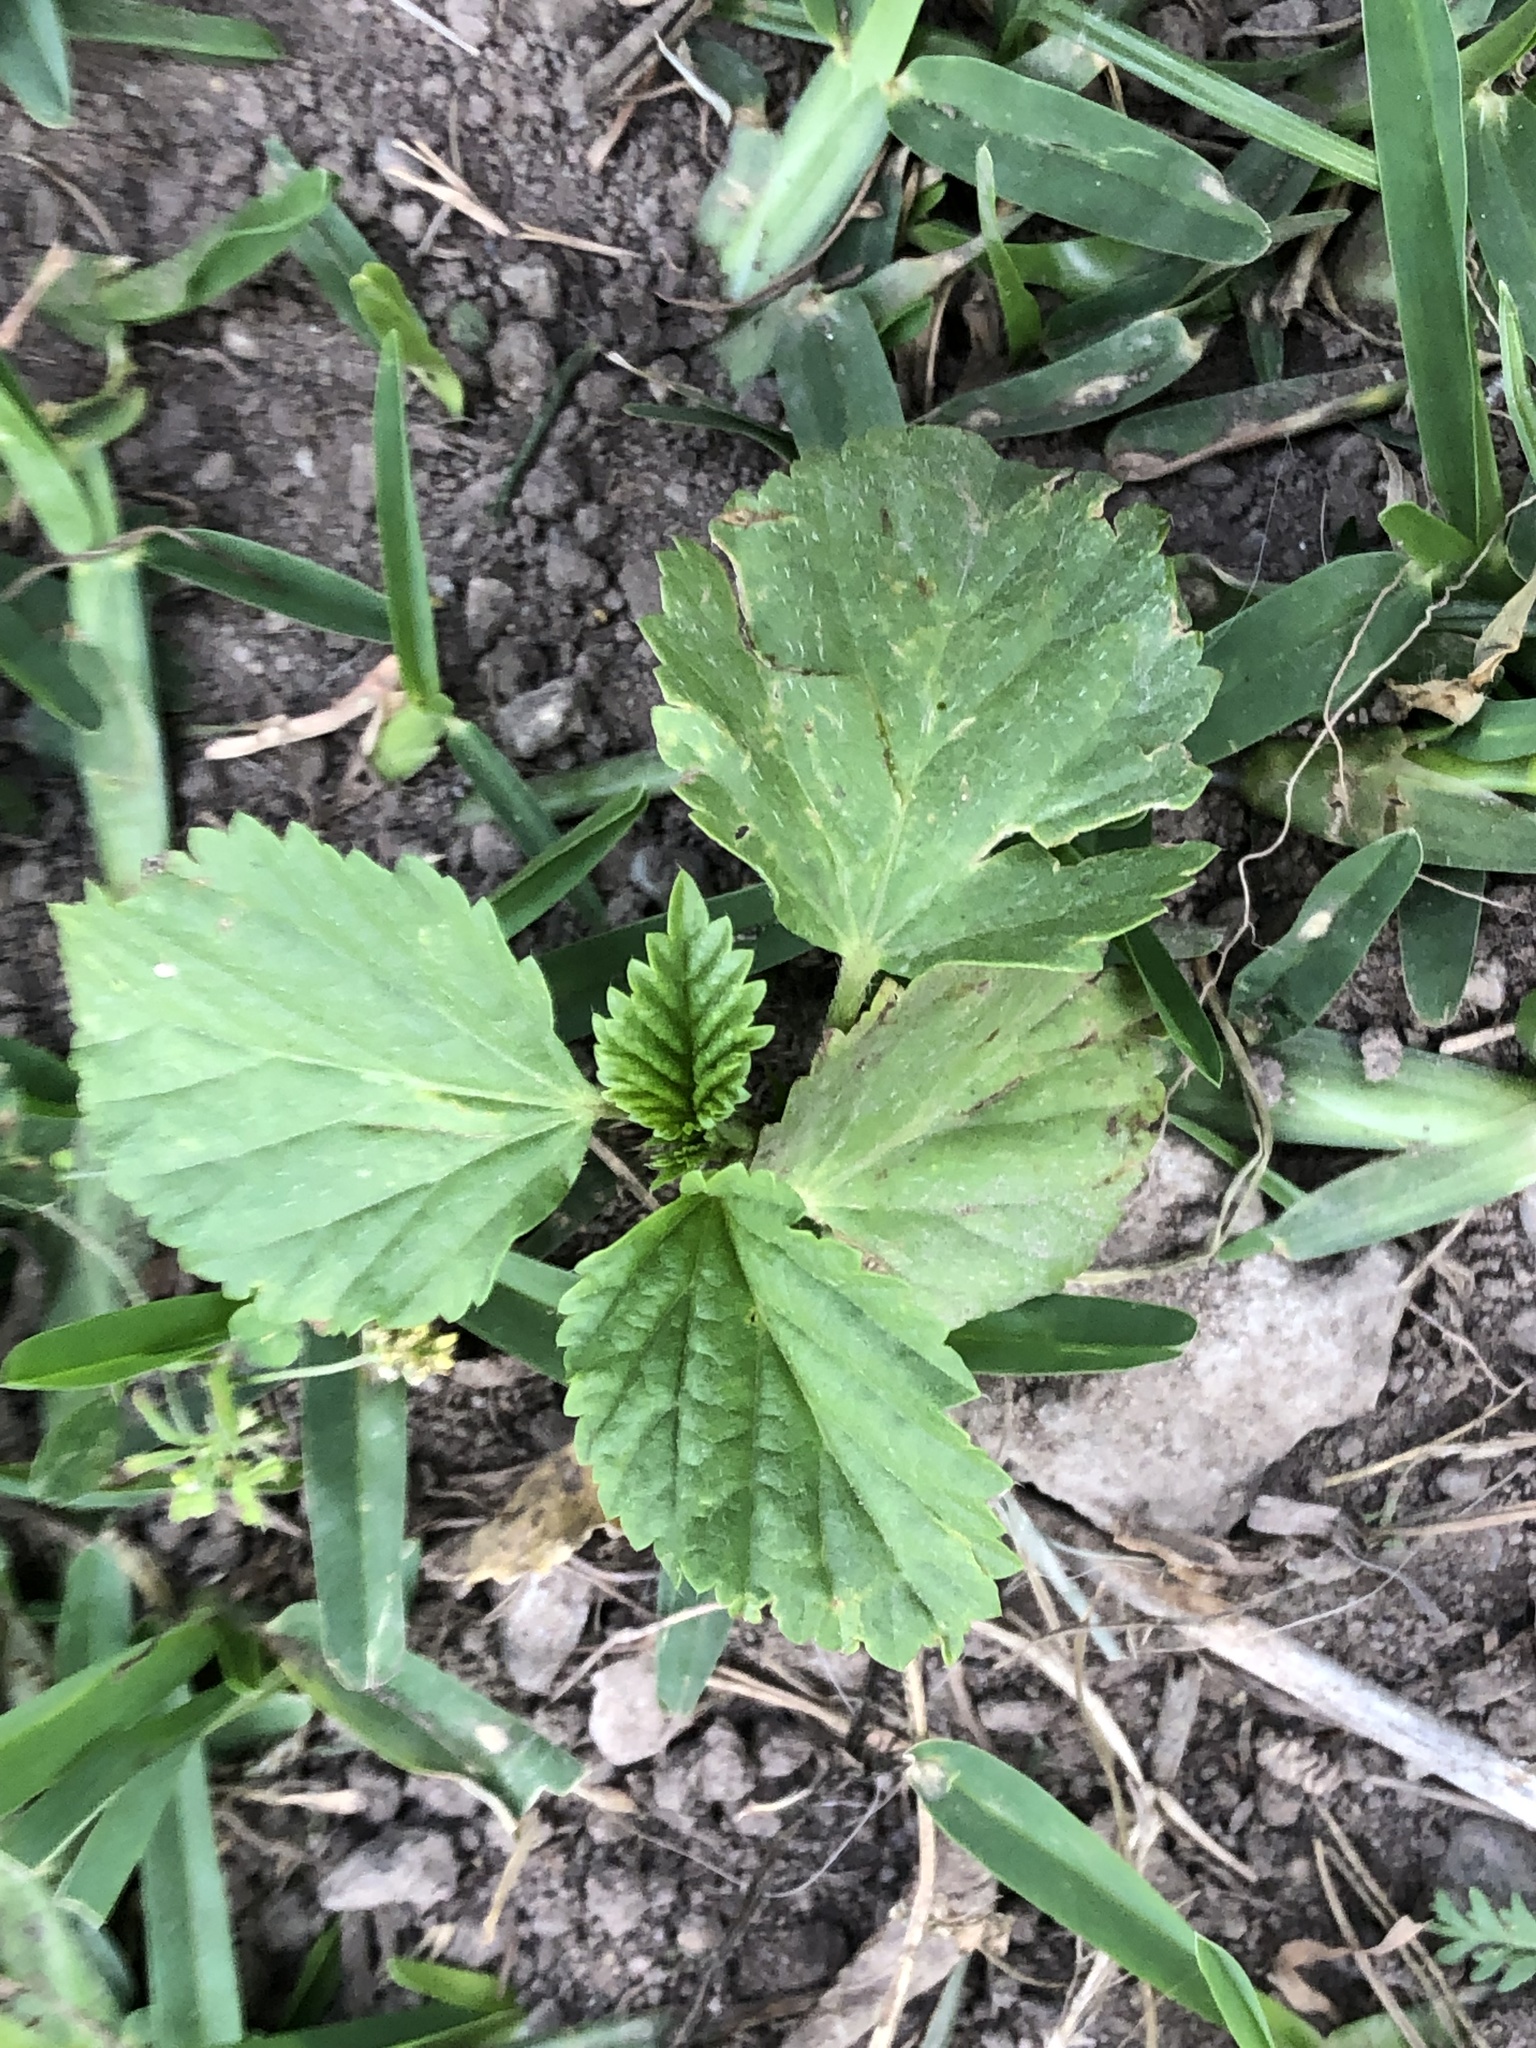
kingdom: Plantae
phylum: Tracheophyta
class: Magnoliopsida
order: Malvales
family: Malvaceae
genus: Malvastrum
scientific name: Malvastrum coromandelianum
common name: Threelobe false mallow
